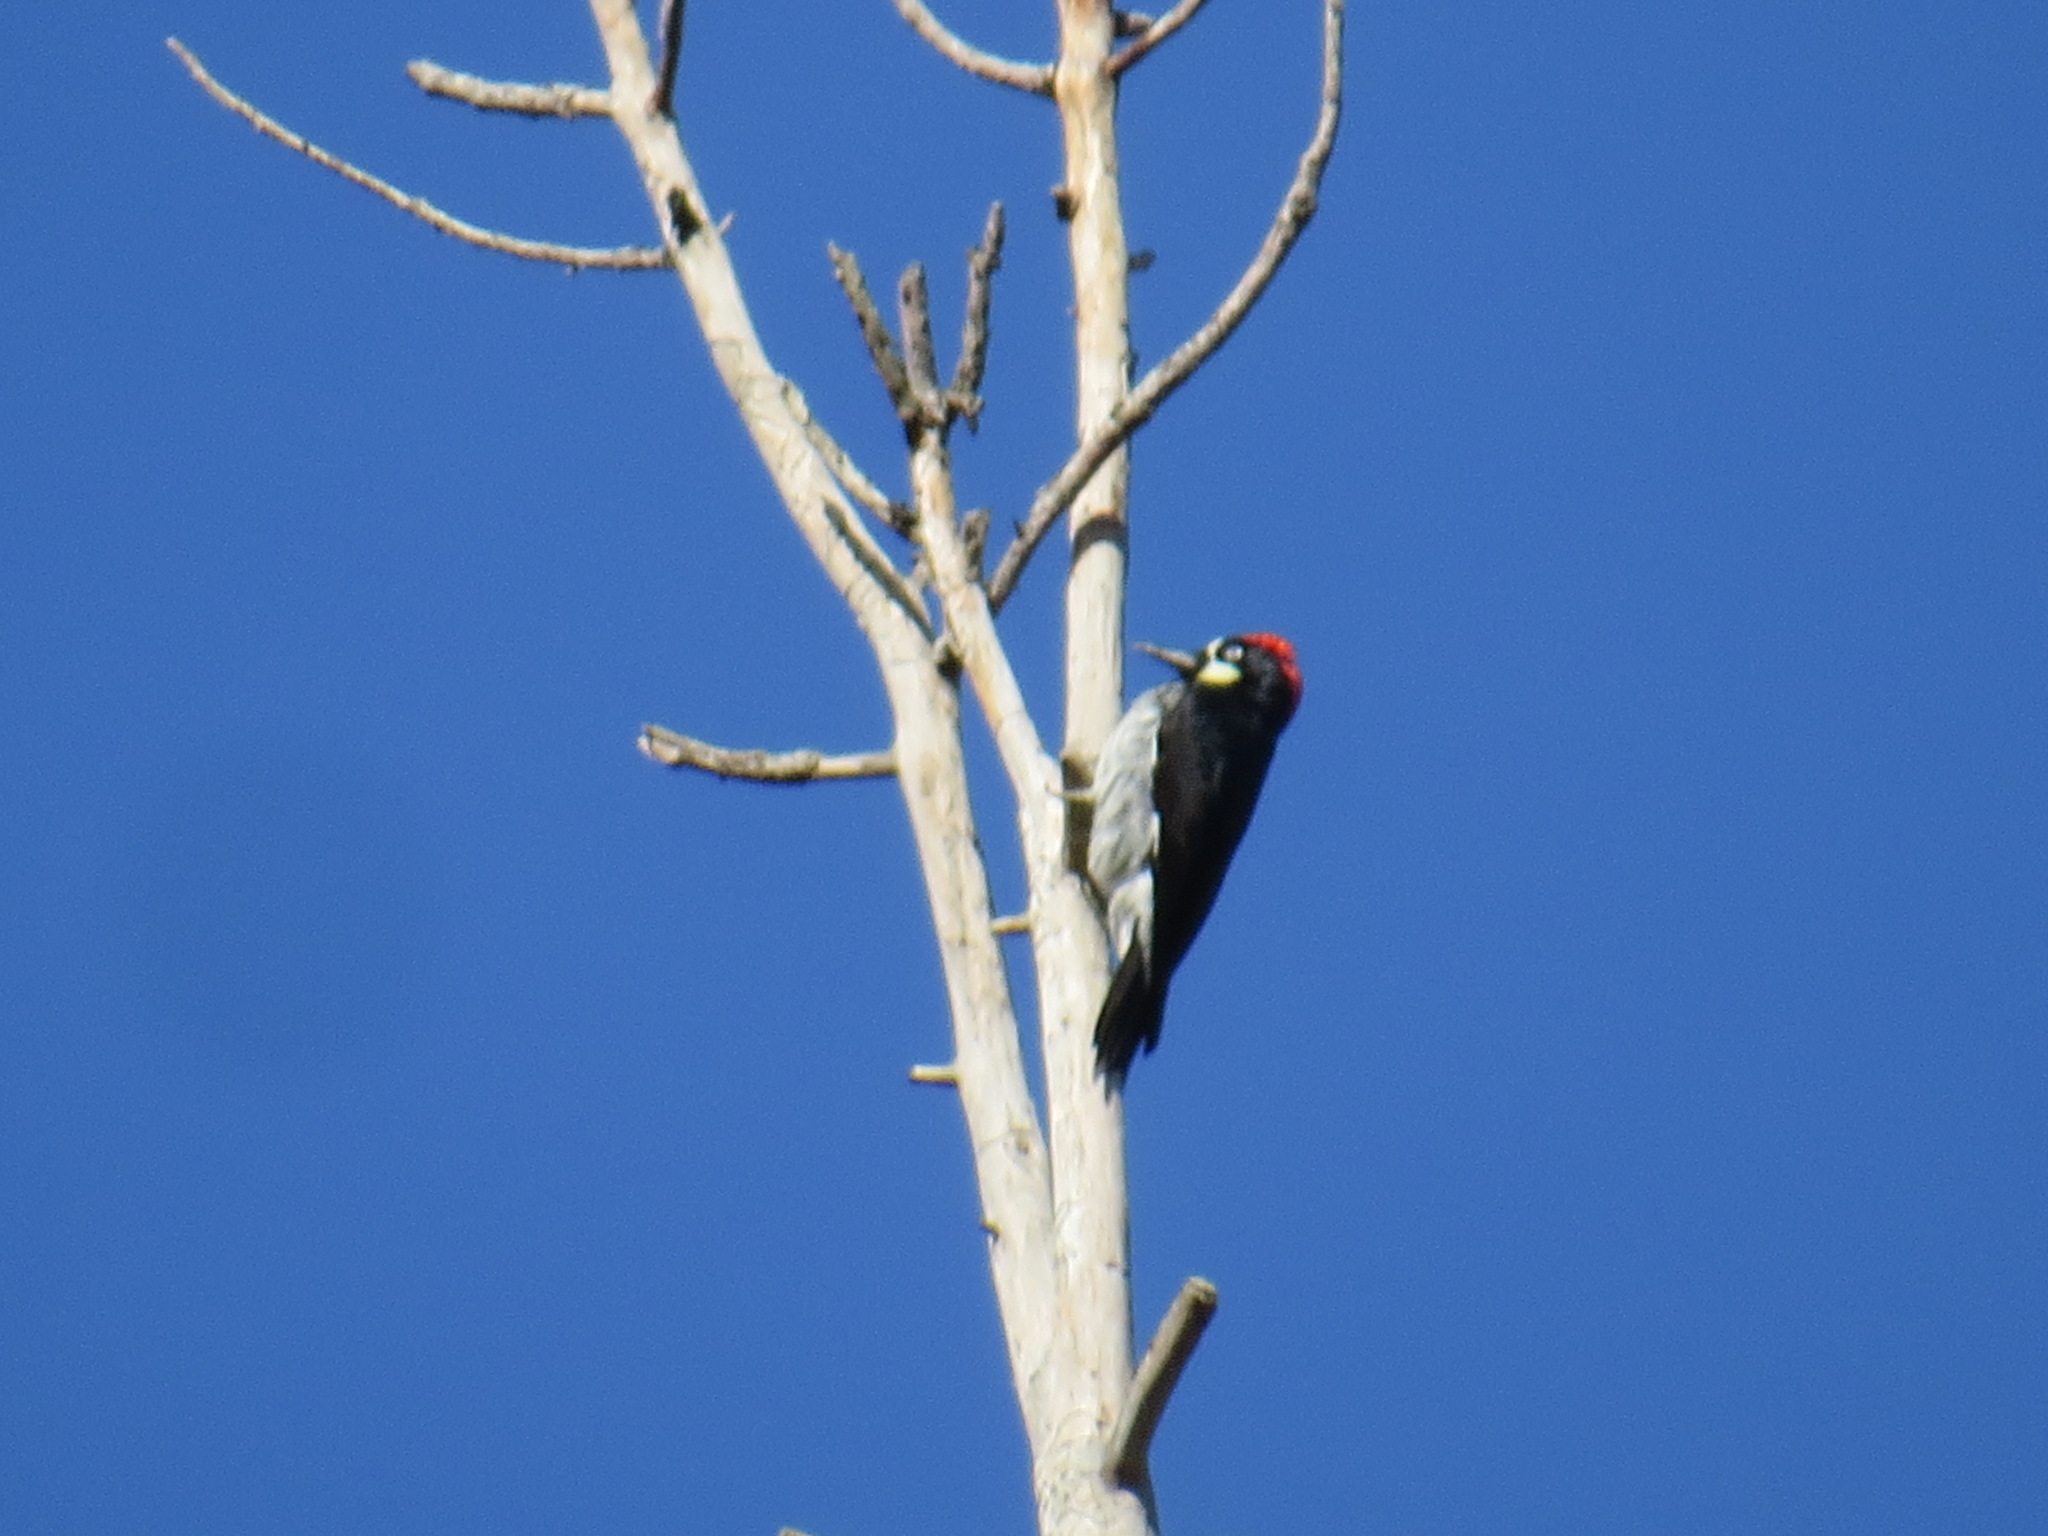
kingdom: Animalia
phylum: Chordata
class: Aves
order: Piciformes
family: Picidae
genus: Melanerpes
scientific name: Melanerpes formicivorus
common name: Acorn woodpecker
